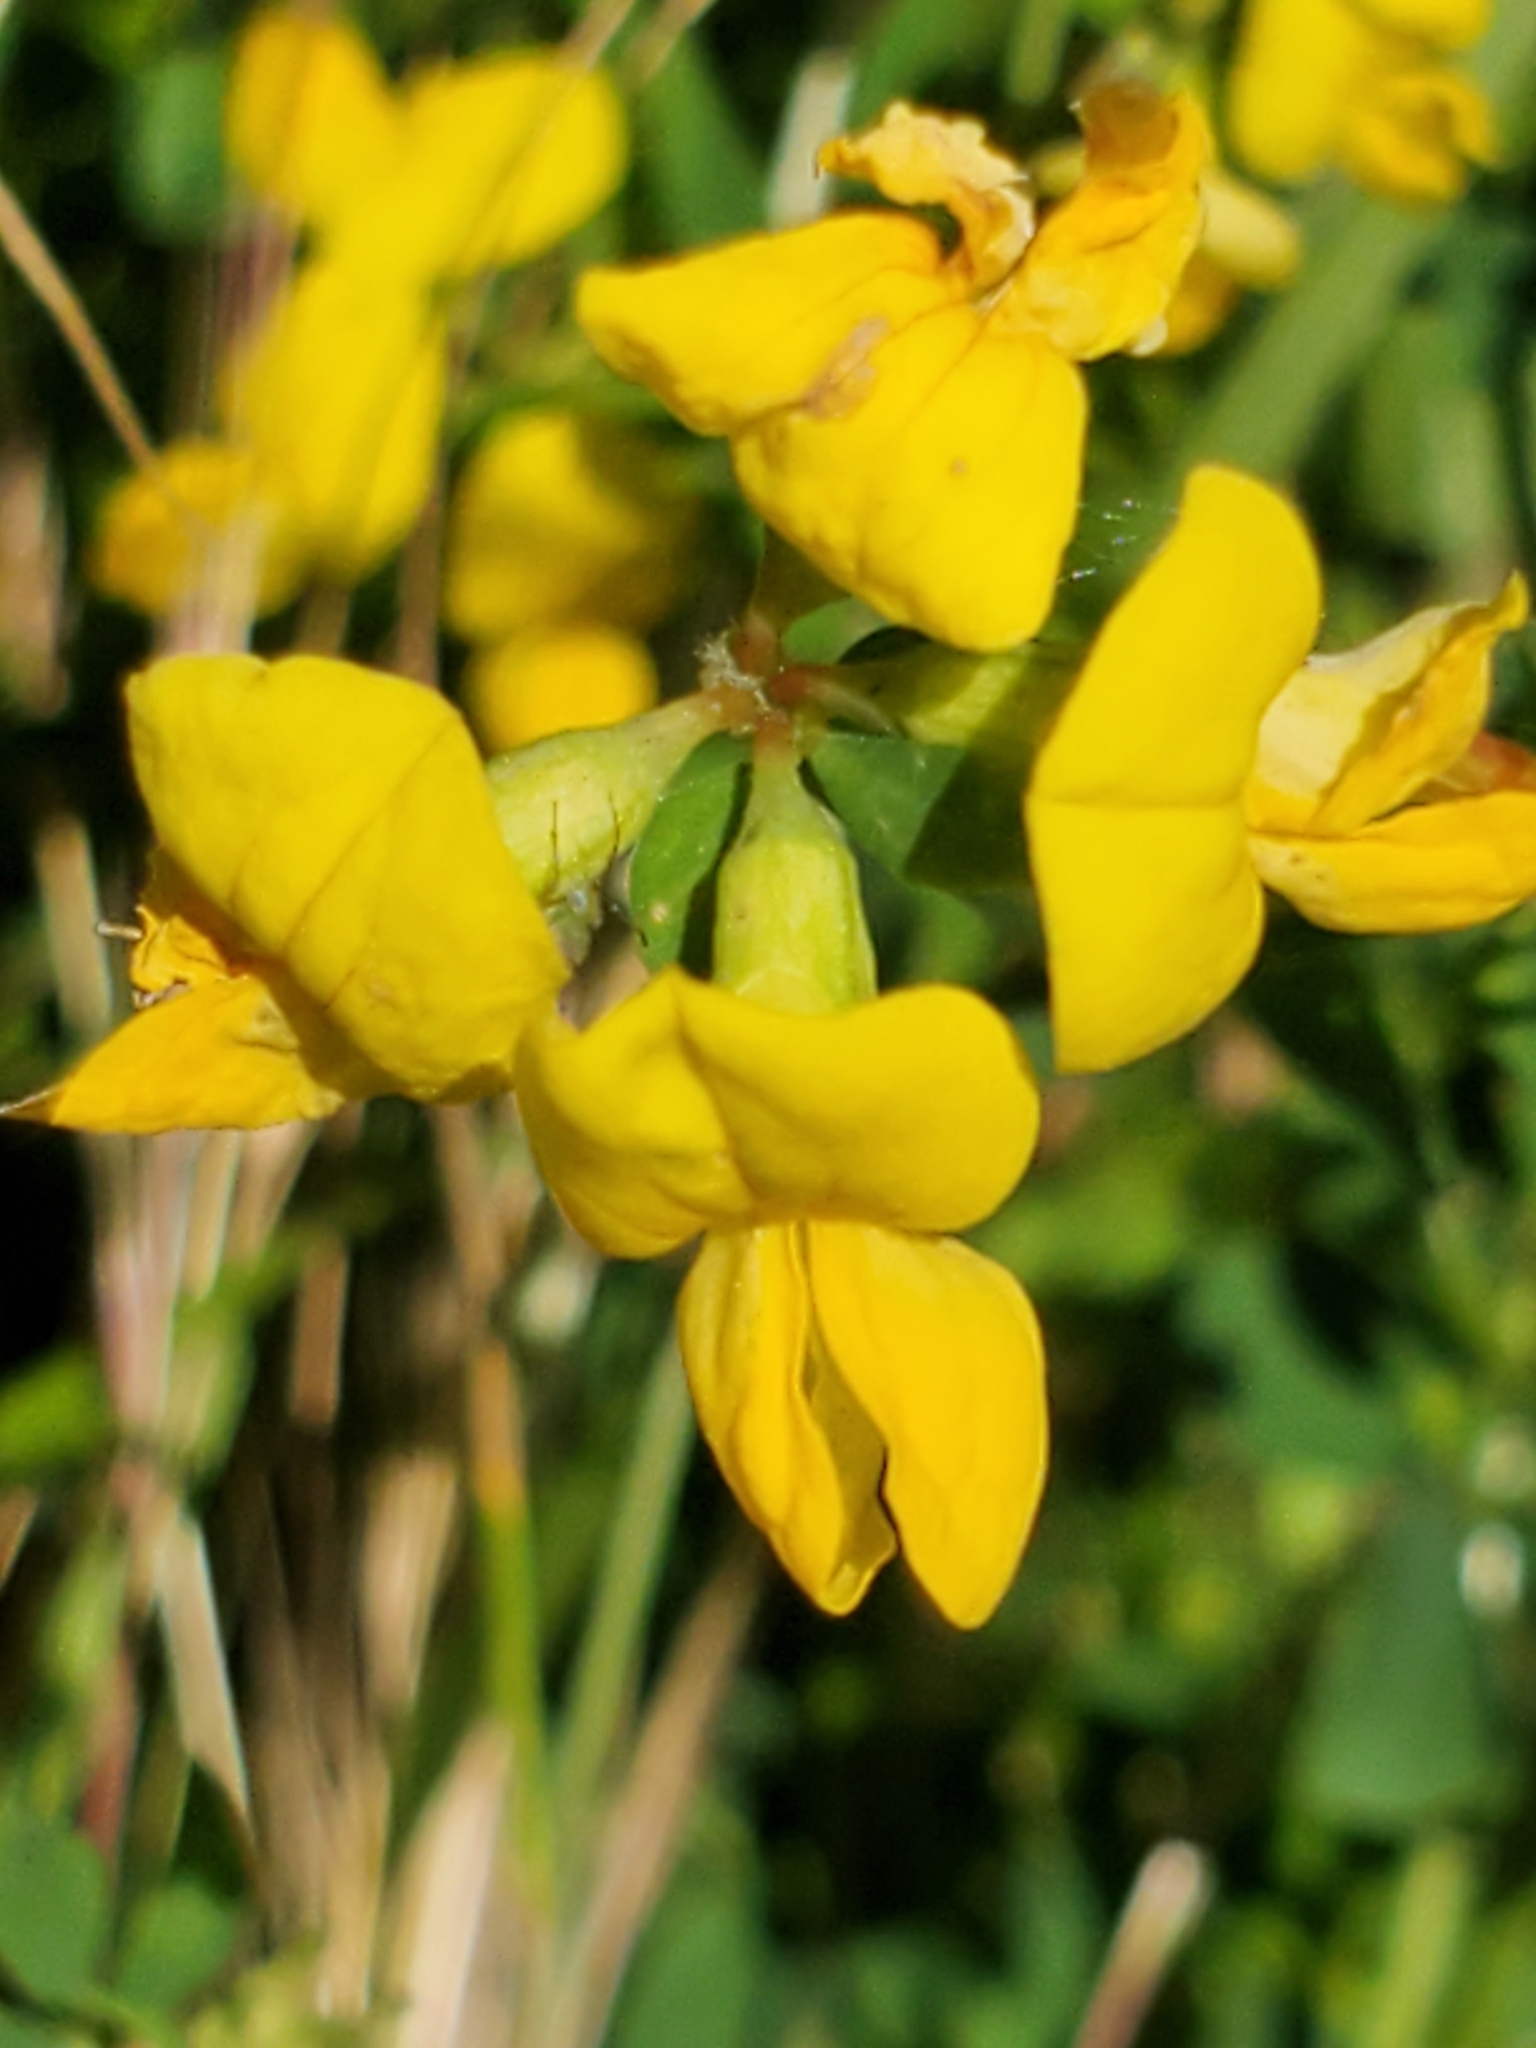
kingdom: Plantae
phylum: Tracheophyta
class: Magnoliopsida
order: Fabales
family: Fabaceae
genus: Lotus
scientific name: Lotus corniculatus
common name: Common bird's-foot-trefoil
